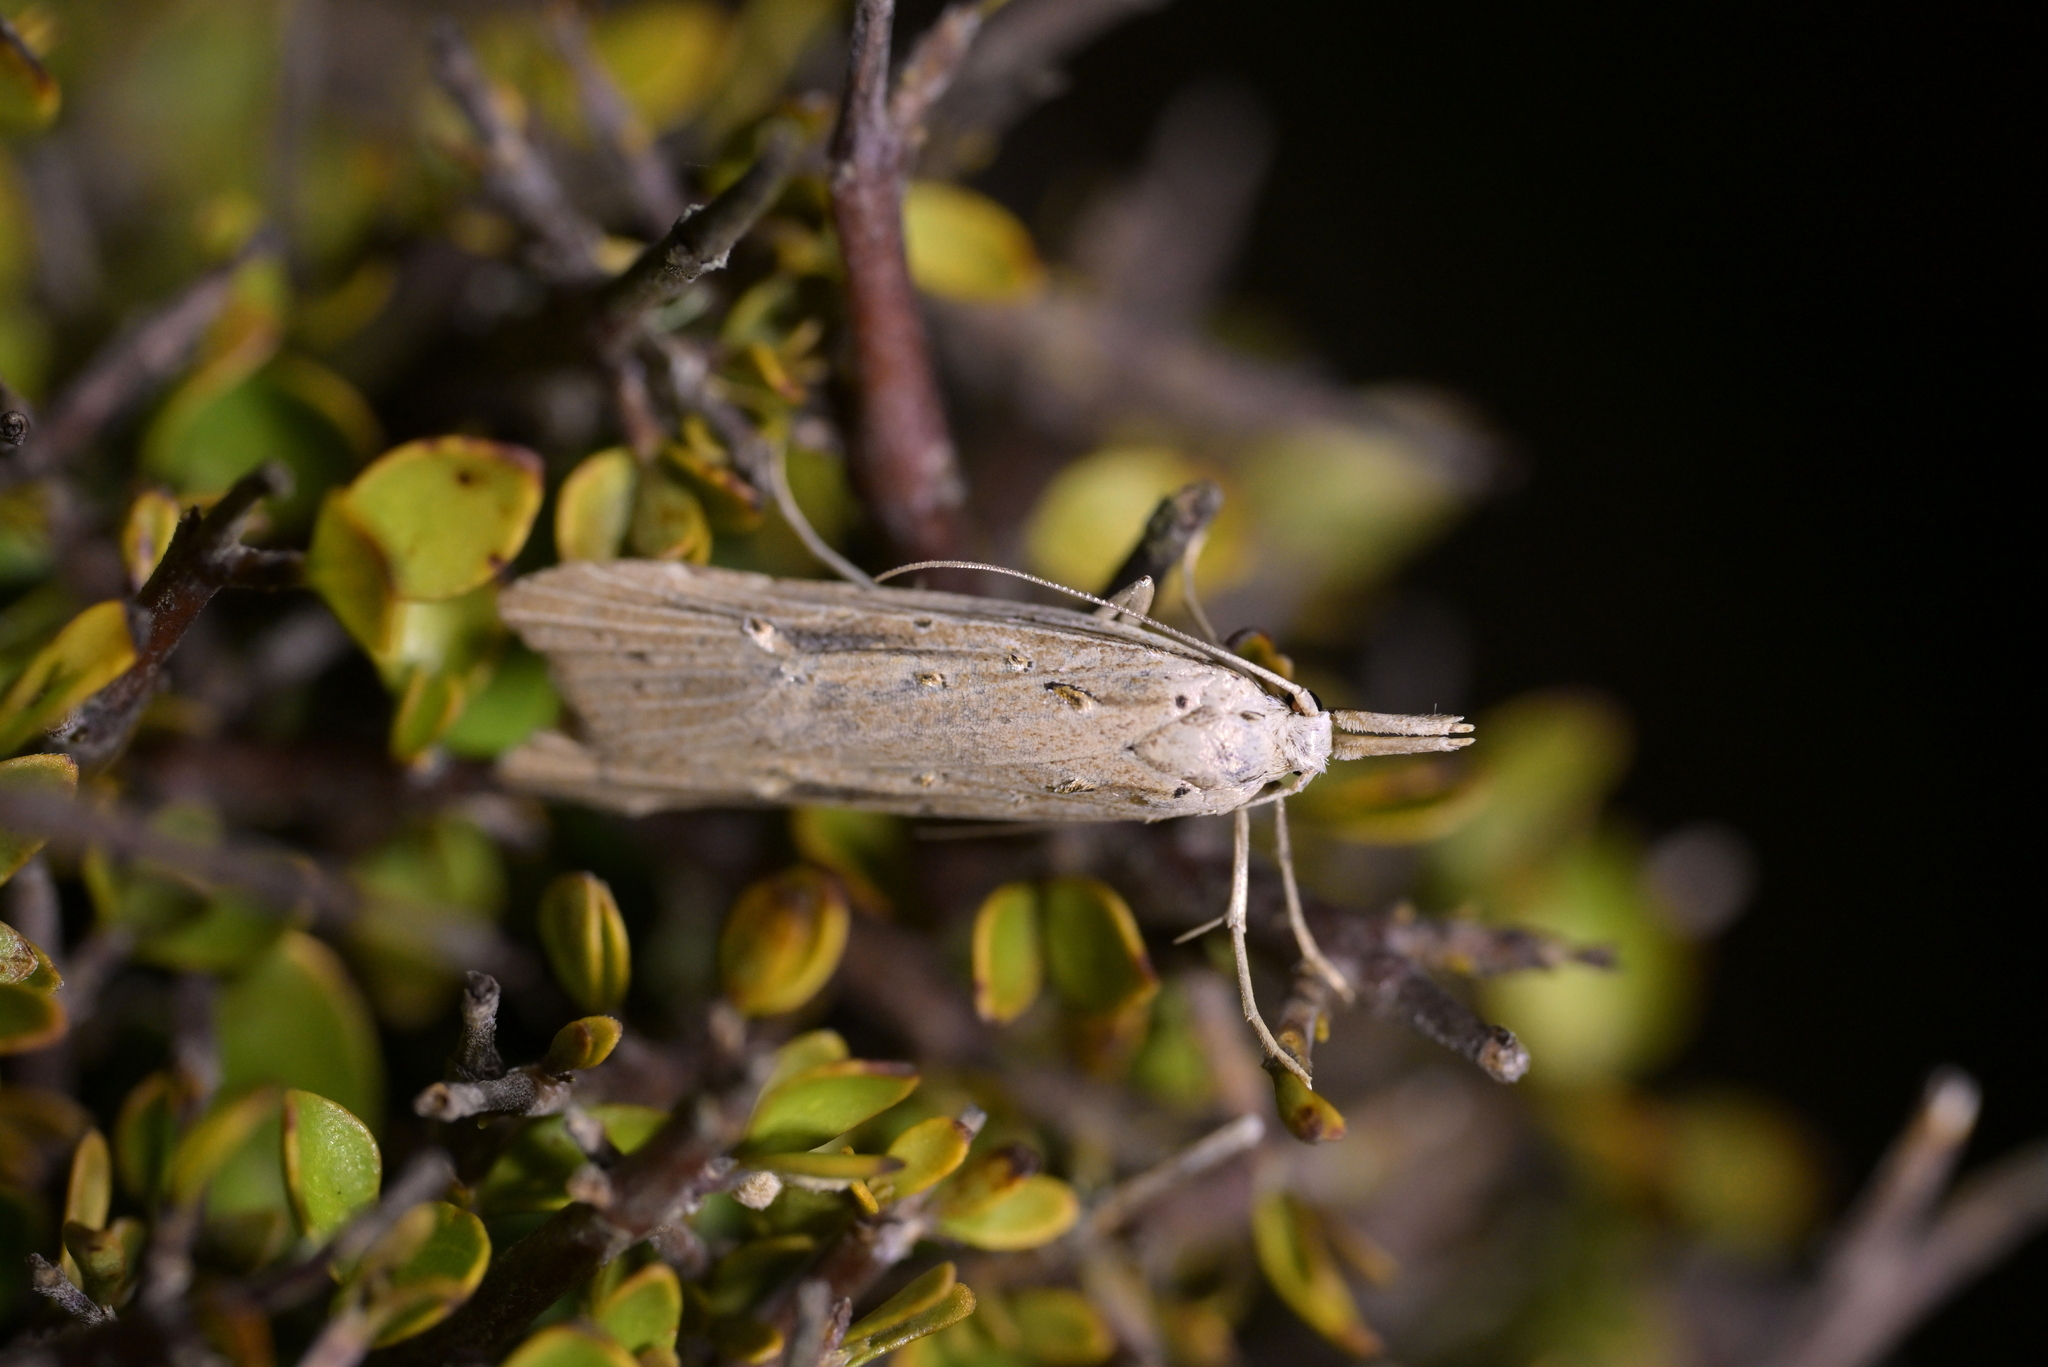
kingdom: Animalia
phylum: Arthropoda
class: Insecta
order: Lepidoptera
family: Carposinidae
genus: Carposina
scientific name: Carposina Heterocrossa exochana
